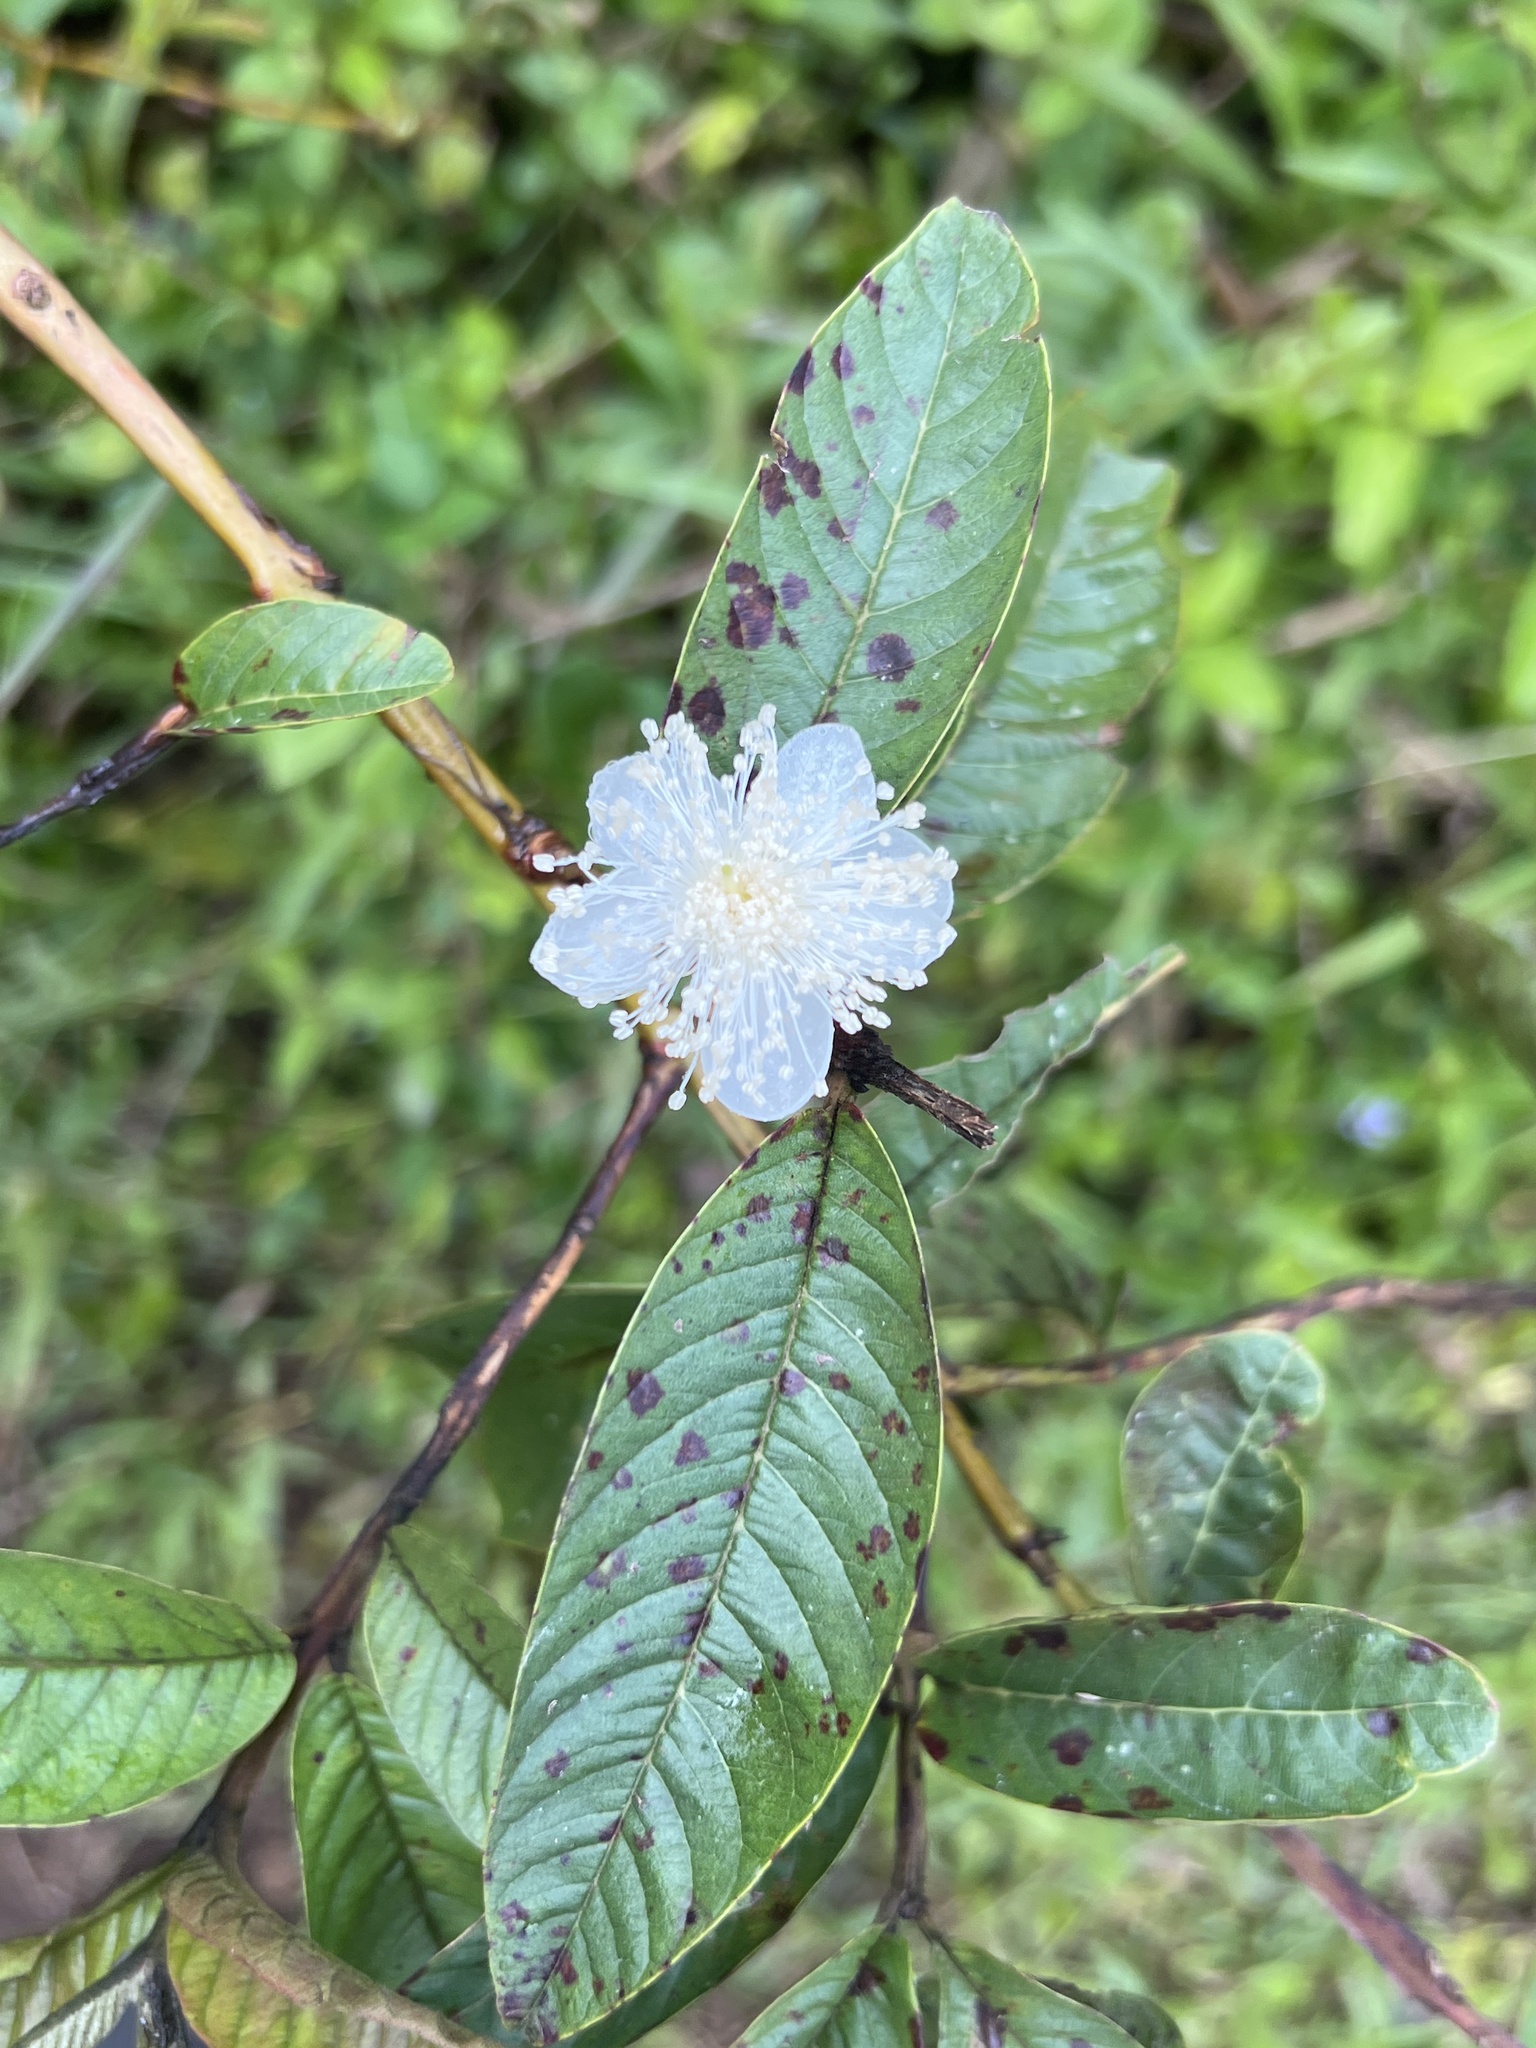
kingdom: Plantae
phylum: Tracheophyta
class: Magnoliopsida
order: Myrtales
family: Myrtaceae
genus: Psidium
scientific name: Psidium guajava
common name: Guava
